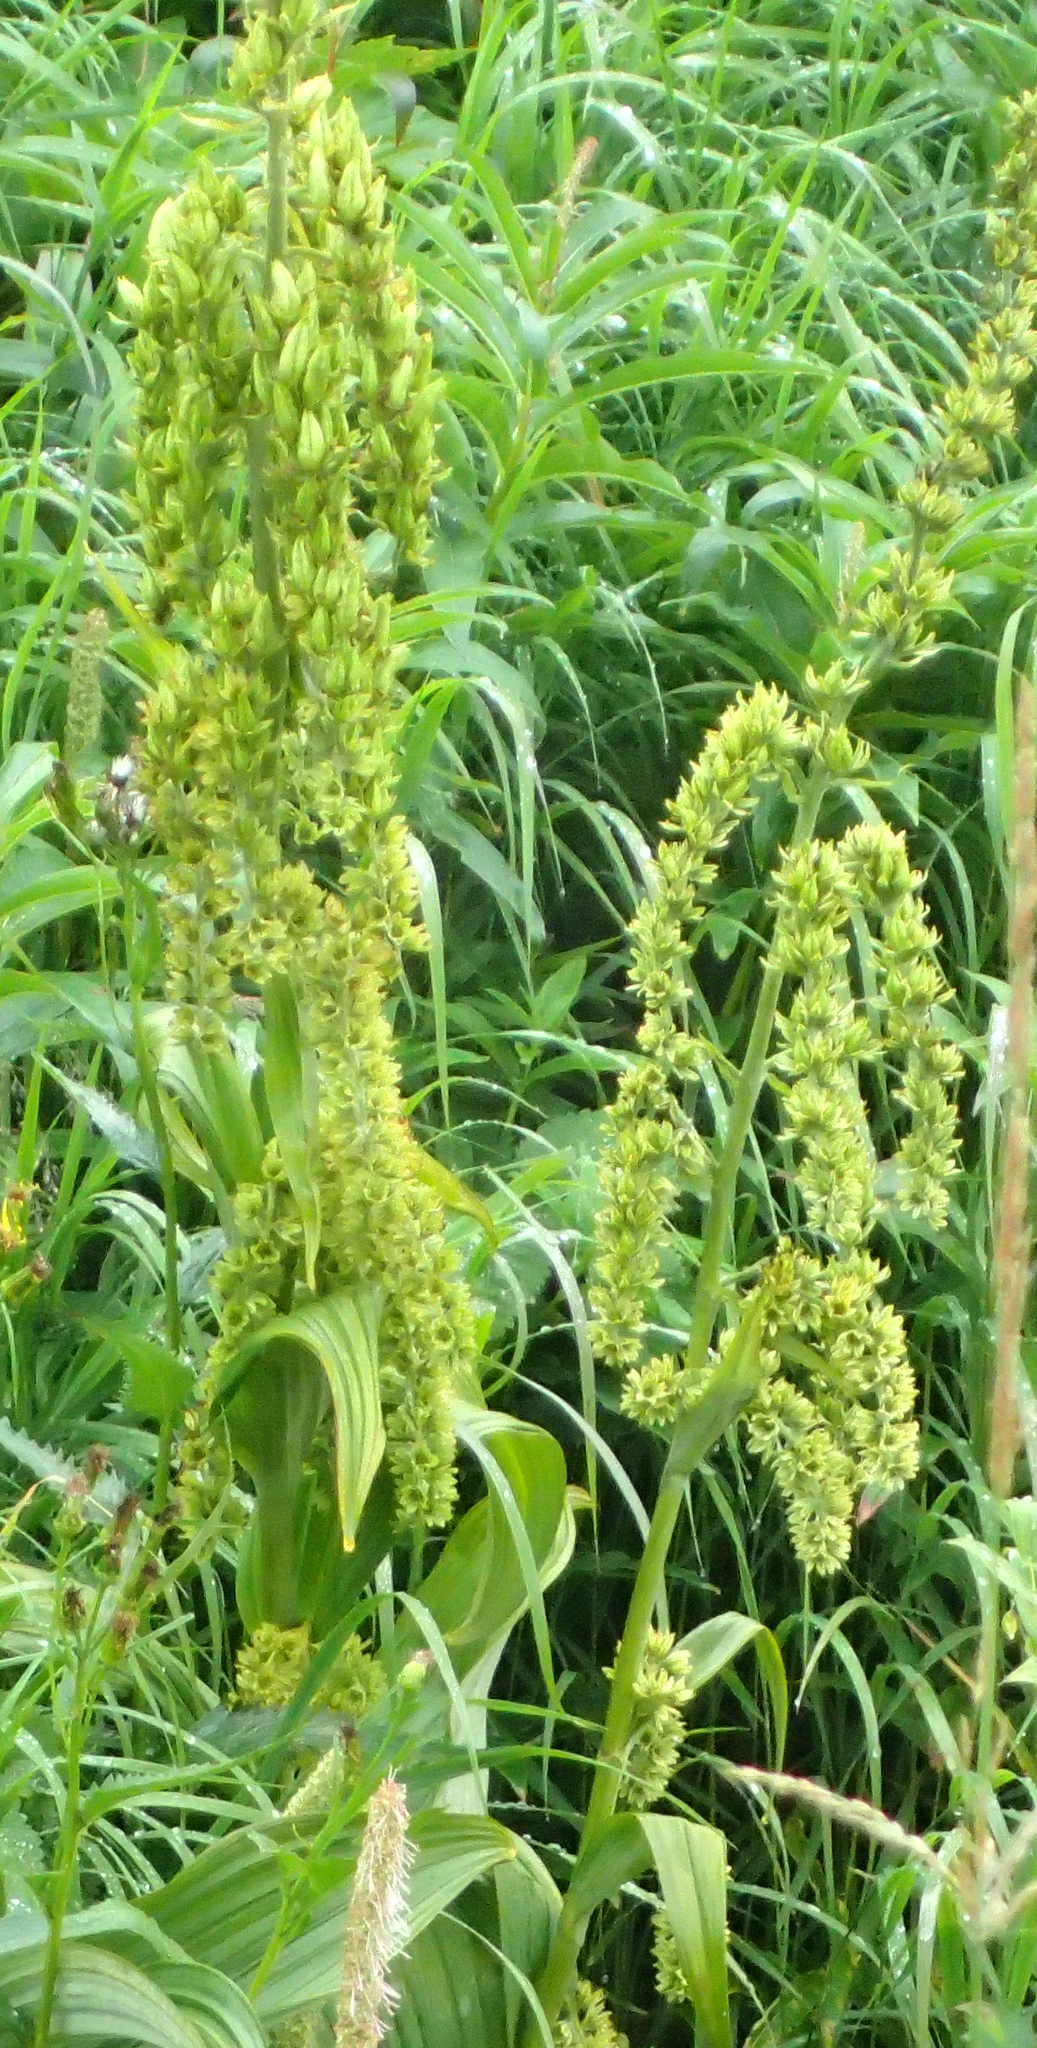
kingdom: Plantae
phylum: Tracheophyta
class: Liliopsida
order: Liliales
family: Melanthiaceae
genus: Veratrum
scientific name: Veratrum viride
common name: American false hellebore
